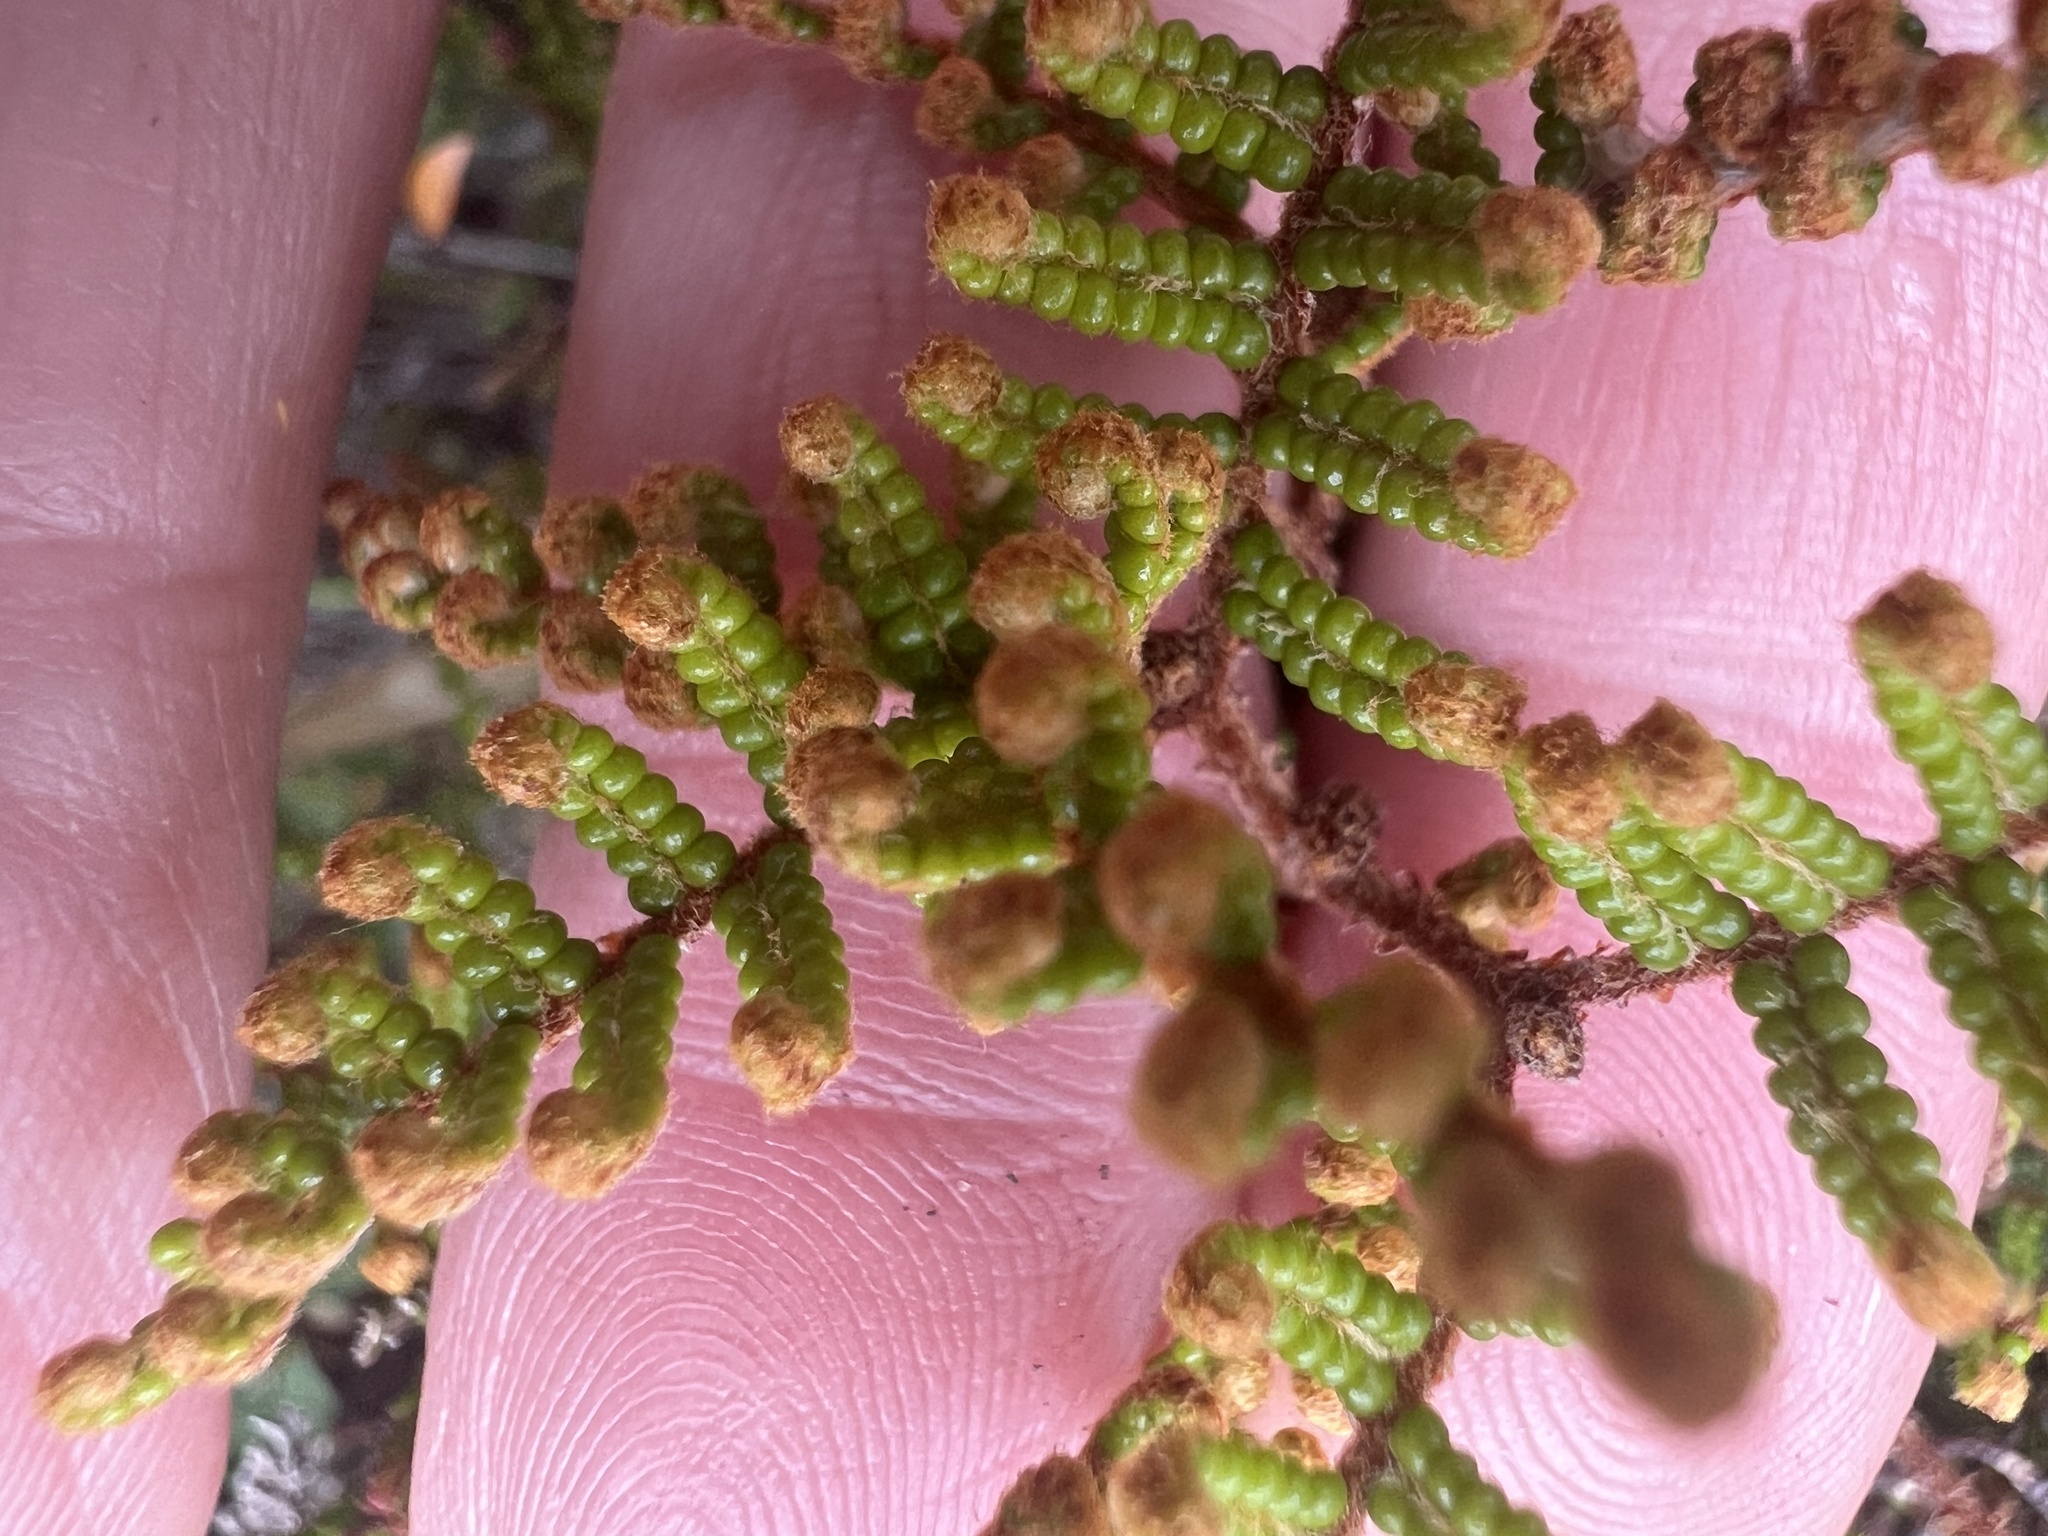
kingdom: Plantae
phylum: Tracheophyta
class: Polypodiopsida
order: Gleicheniales
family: Gleicheniaceae
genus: Gleichenia
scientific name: Gleichenia alpina
